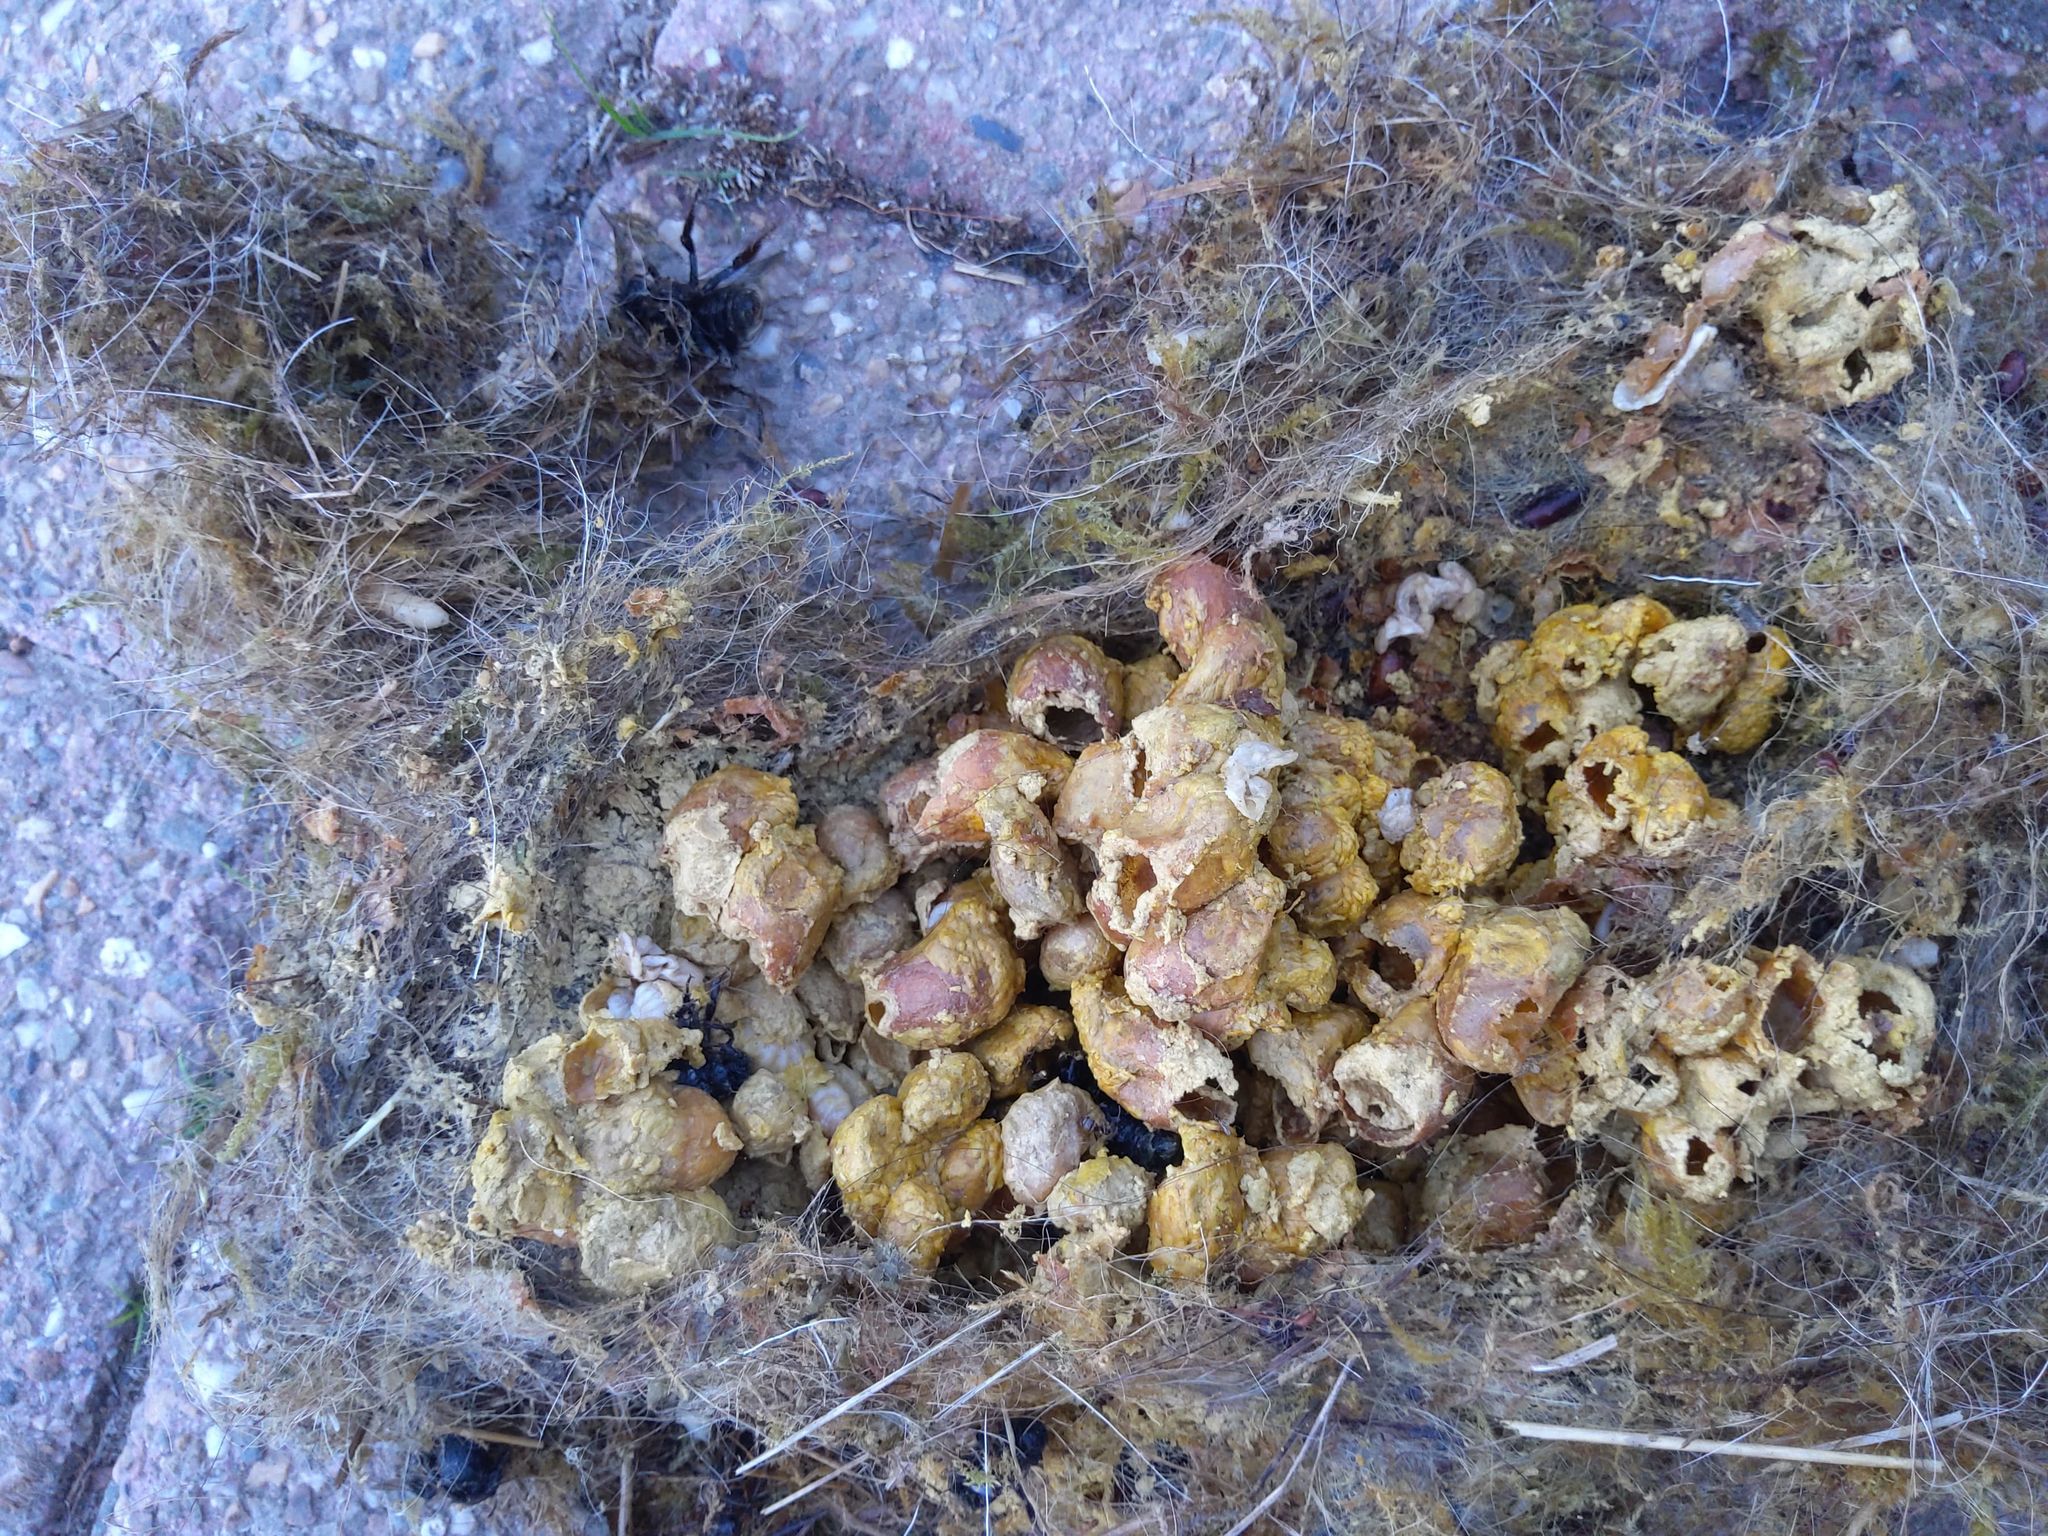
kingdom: Animalia
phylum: Arthropoda
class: Insecta
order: Hymenoptera
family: Apidae
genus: Bombus
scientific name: Bombus hypnorum
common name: New garden bumblebee
